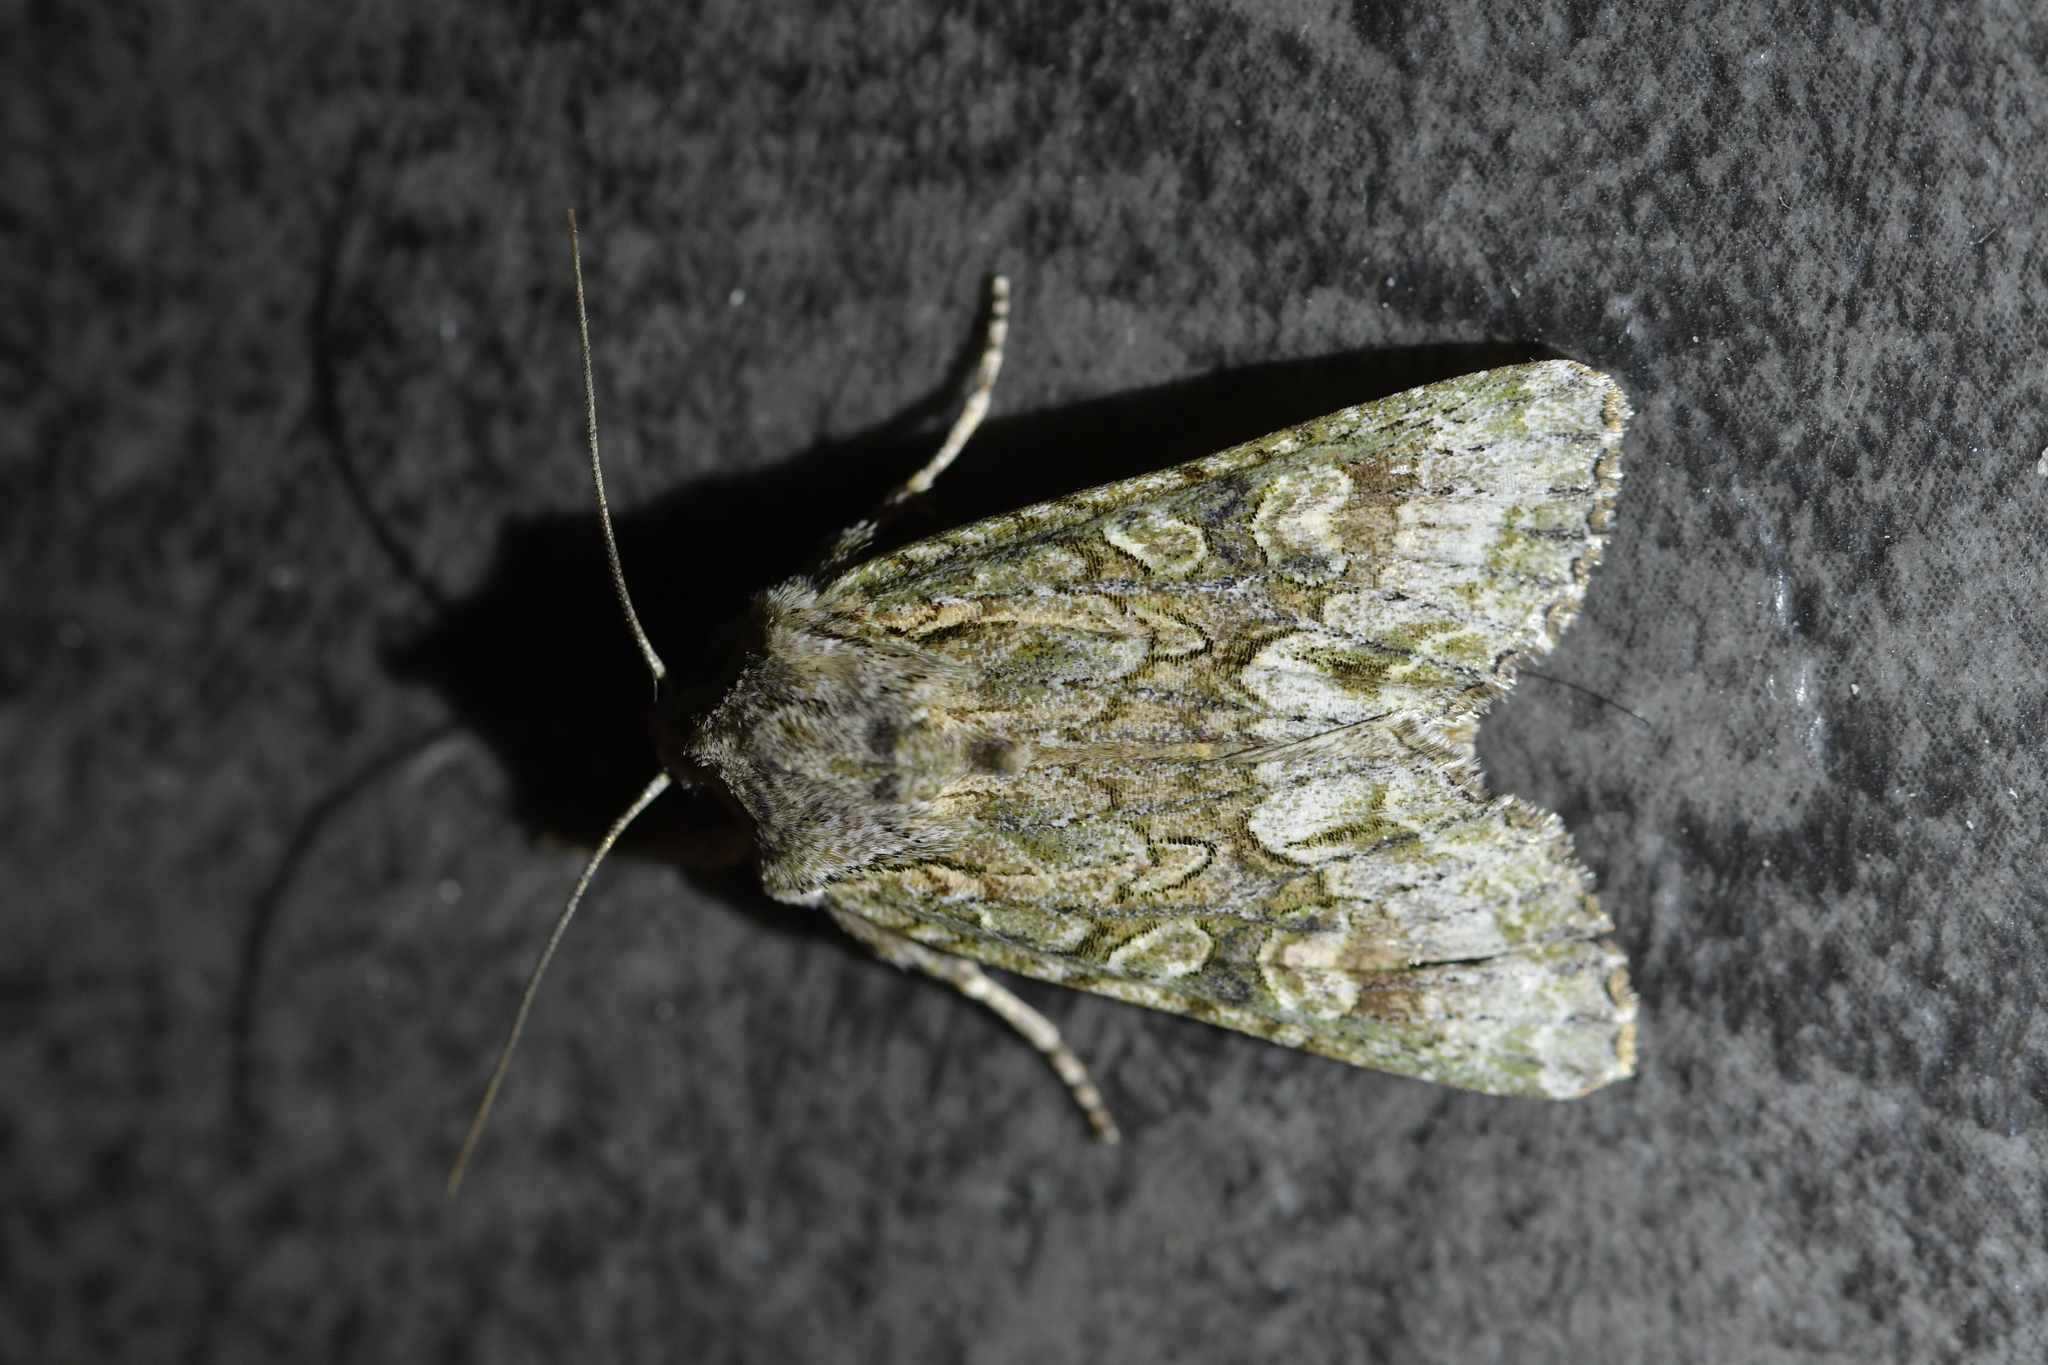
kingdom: Animalia
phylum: Arthropoda
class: Insecta
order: Lepidoptera
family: Noctuidae
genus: Ichneutica
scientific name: Ichneutica mutans
